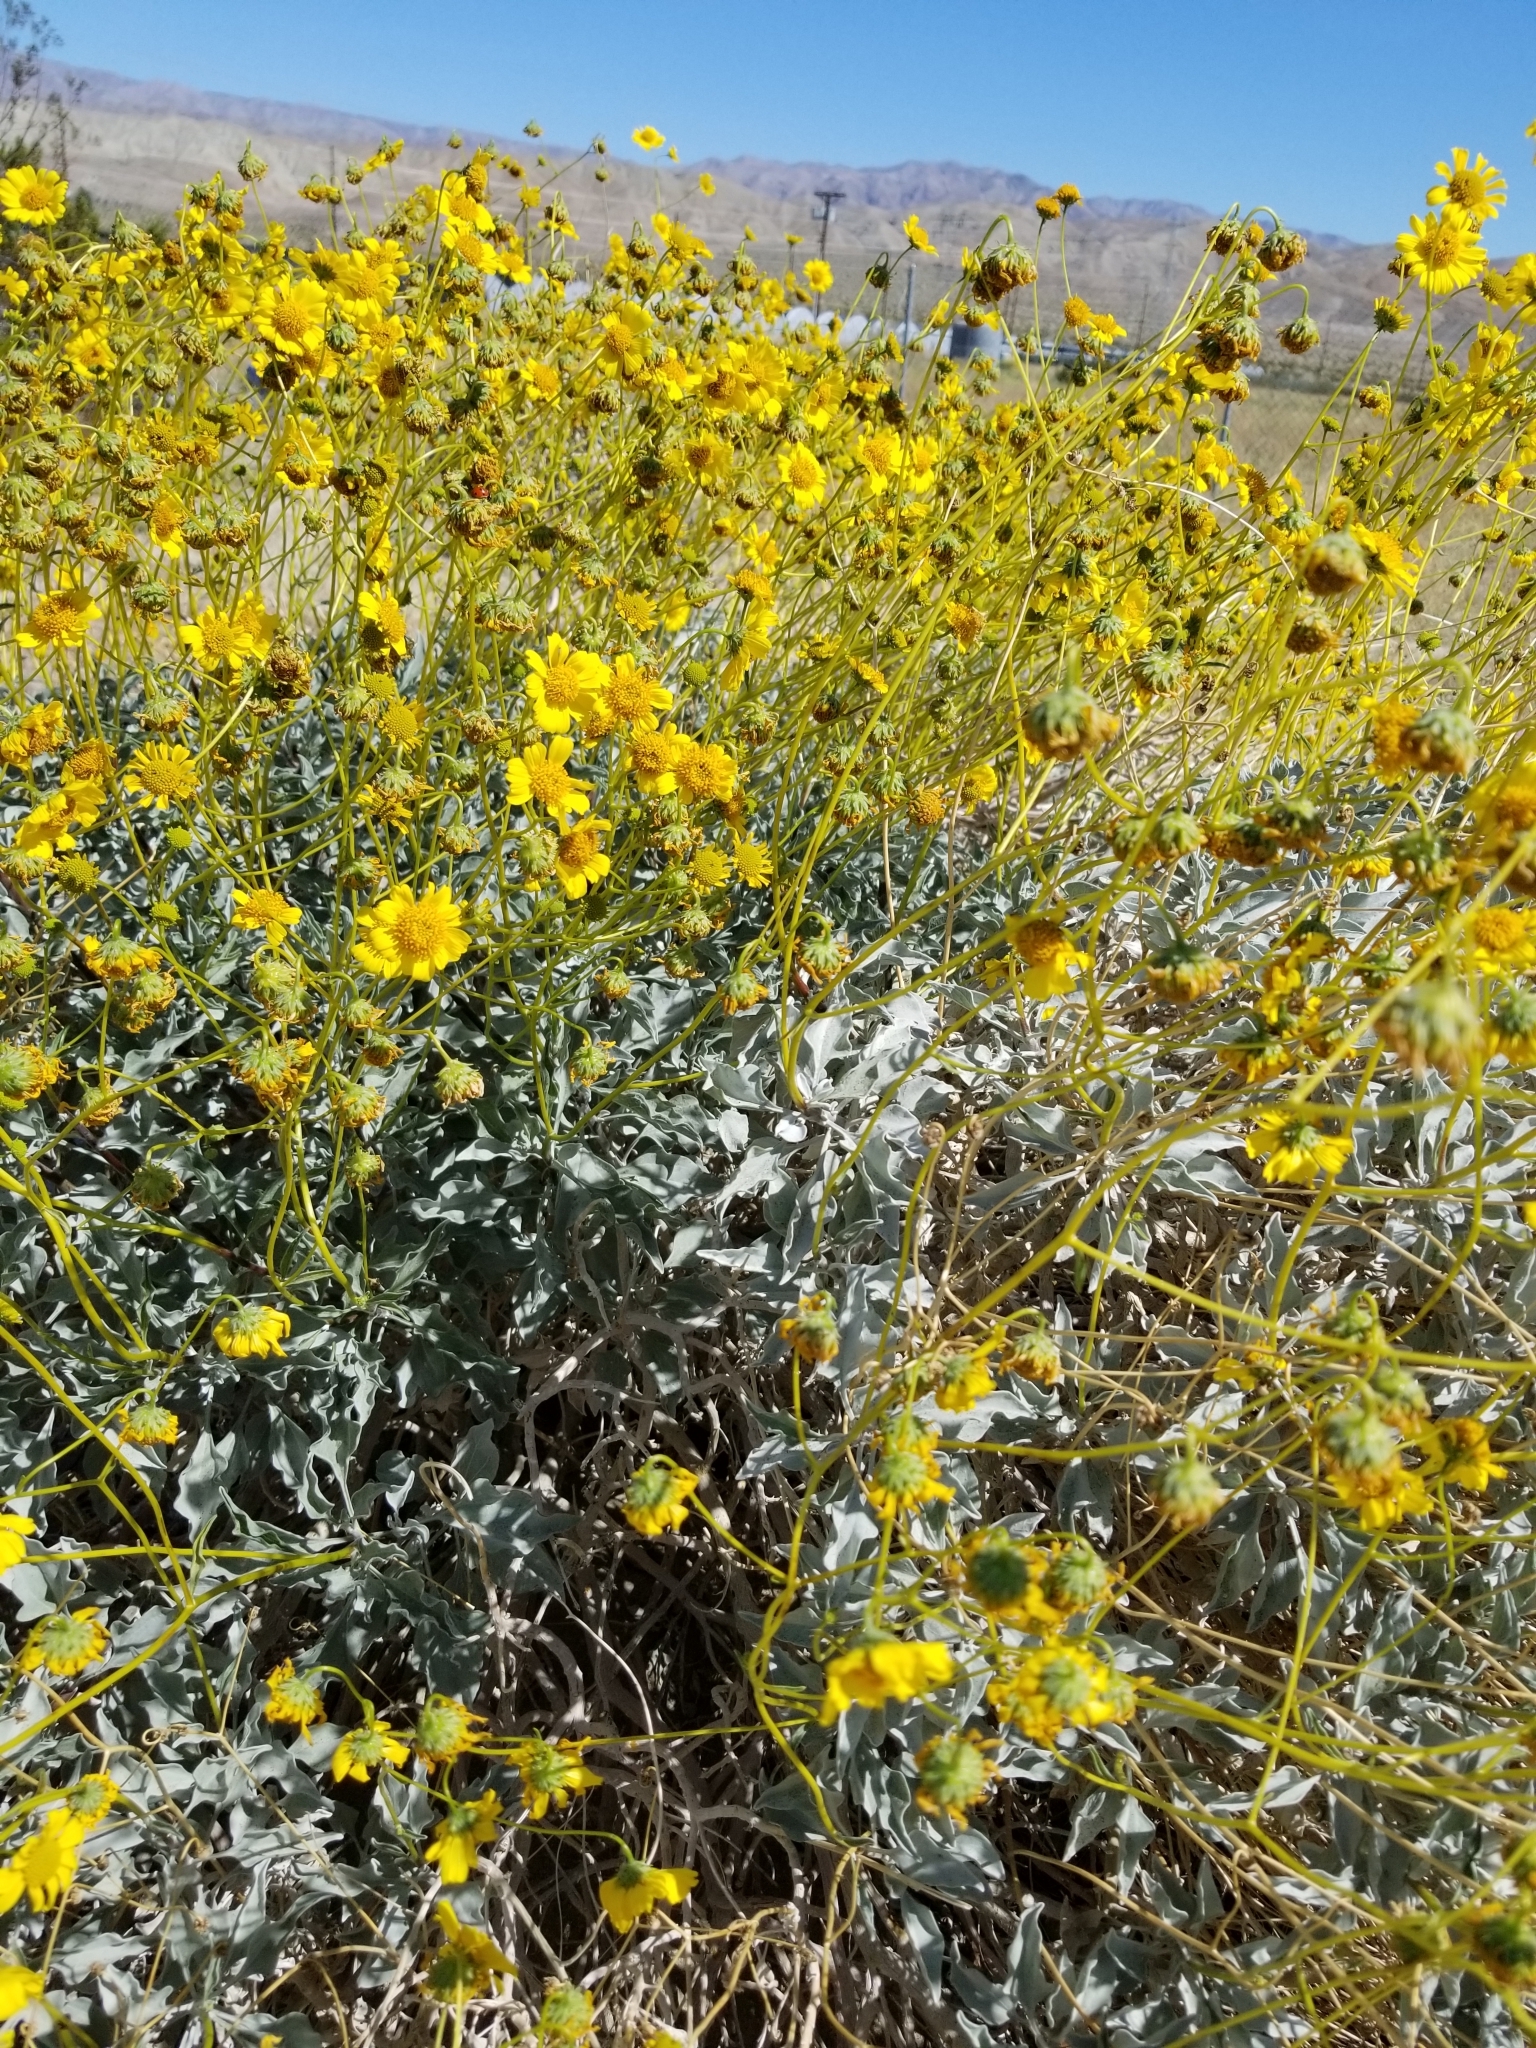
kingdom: Plantae
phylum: Tracheophyta
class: Magnoliopsida
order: Asterales
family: Asteraceae
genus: Encelia
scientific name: Encelia farinosa
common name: Brittlebush
